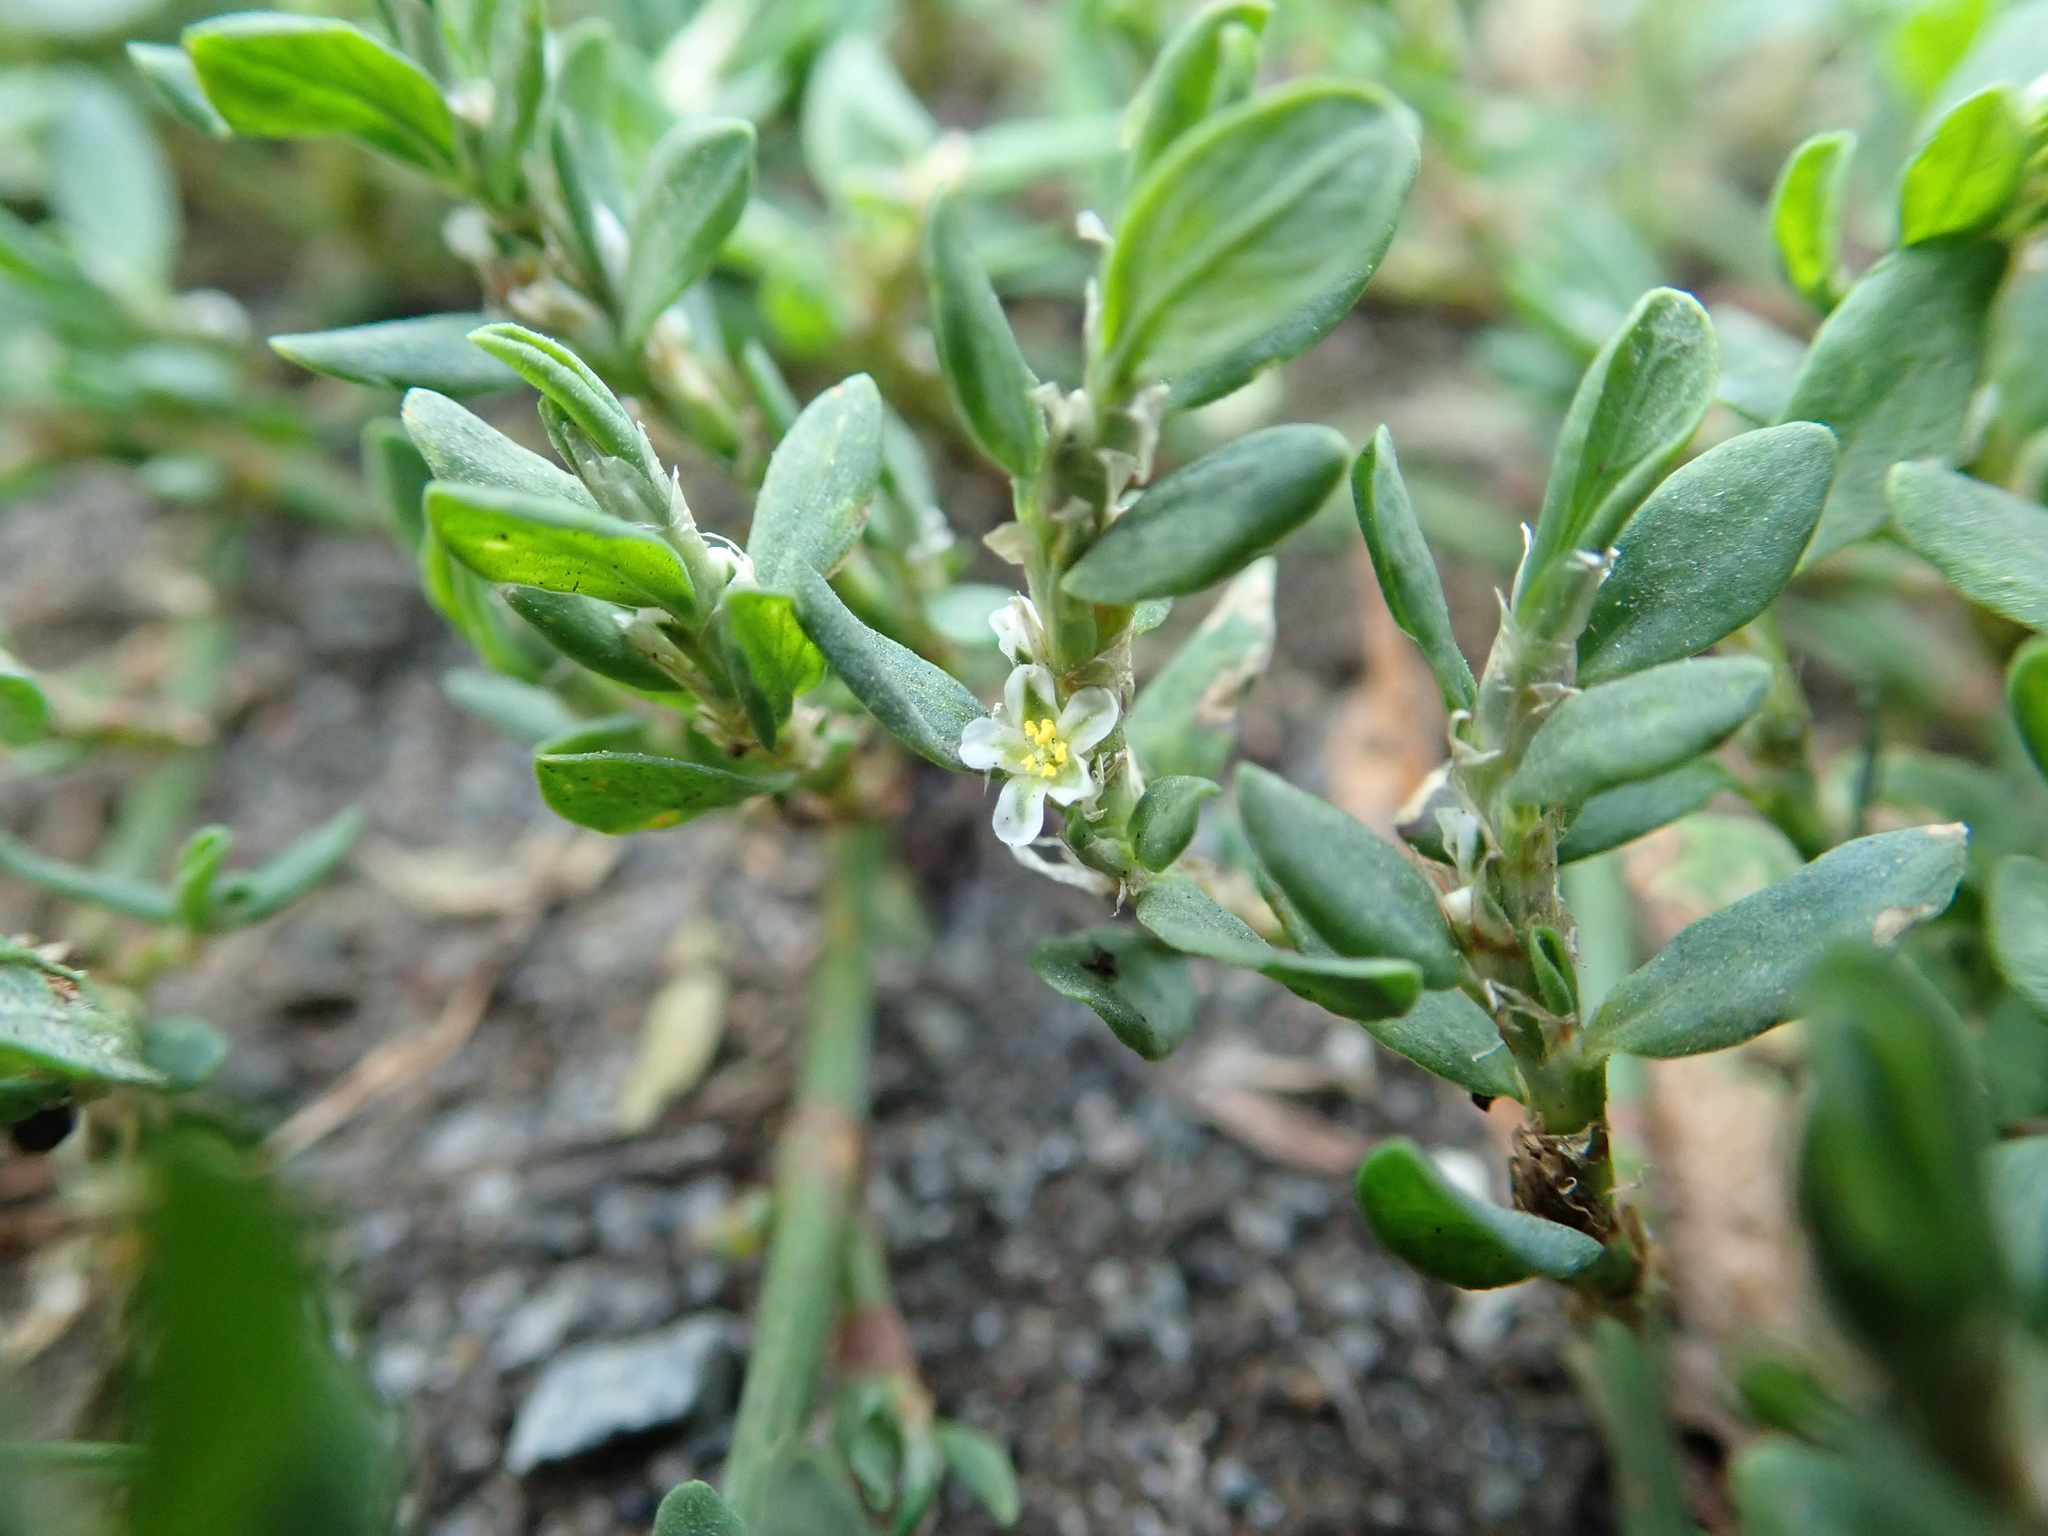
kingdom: Plantae
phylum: Tracheophyta
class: Magnoliopsida
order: Caryophyllales
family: Polygonaceae
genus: Polygonum
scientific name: Polygonum aviculare
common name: Prostrate knotweed
